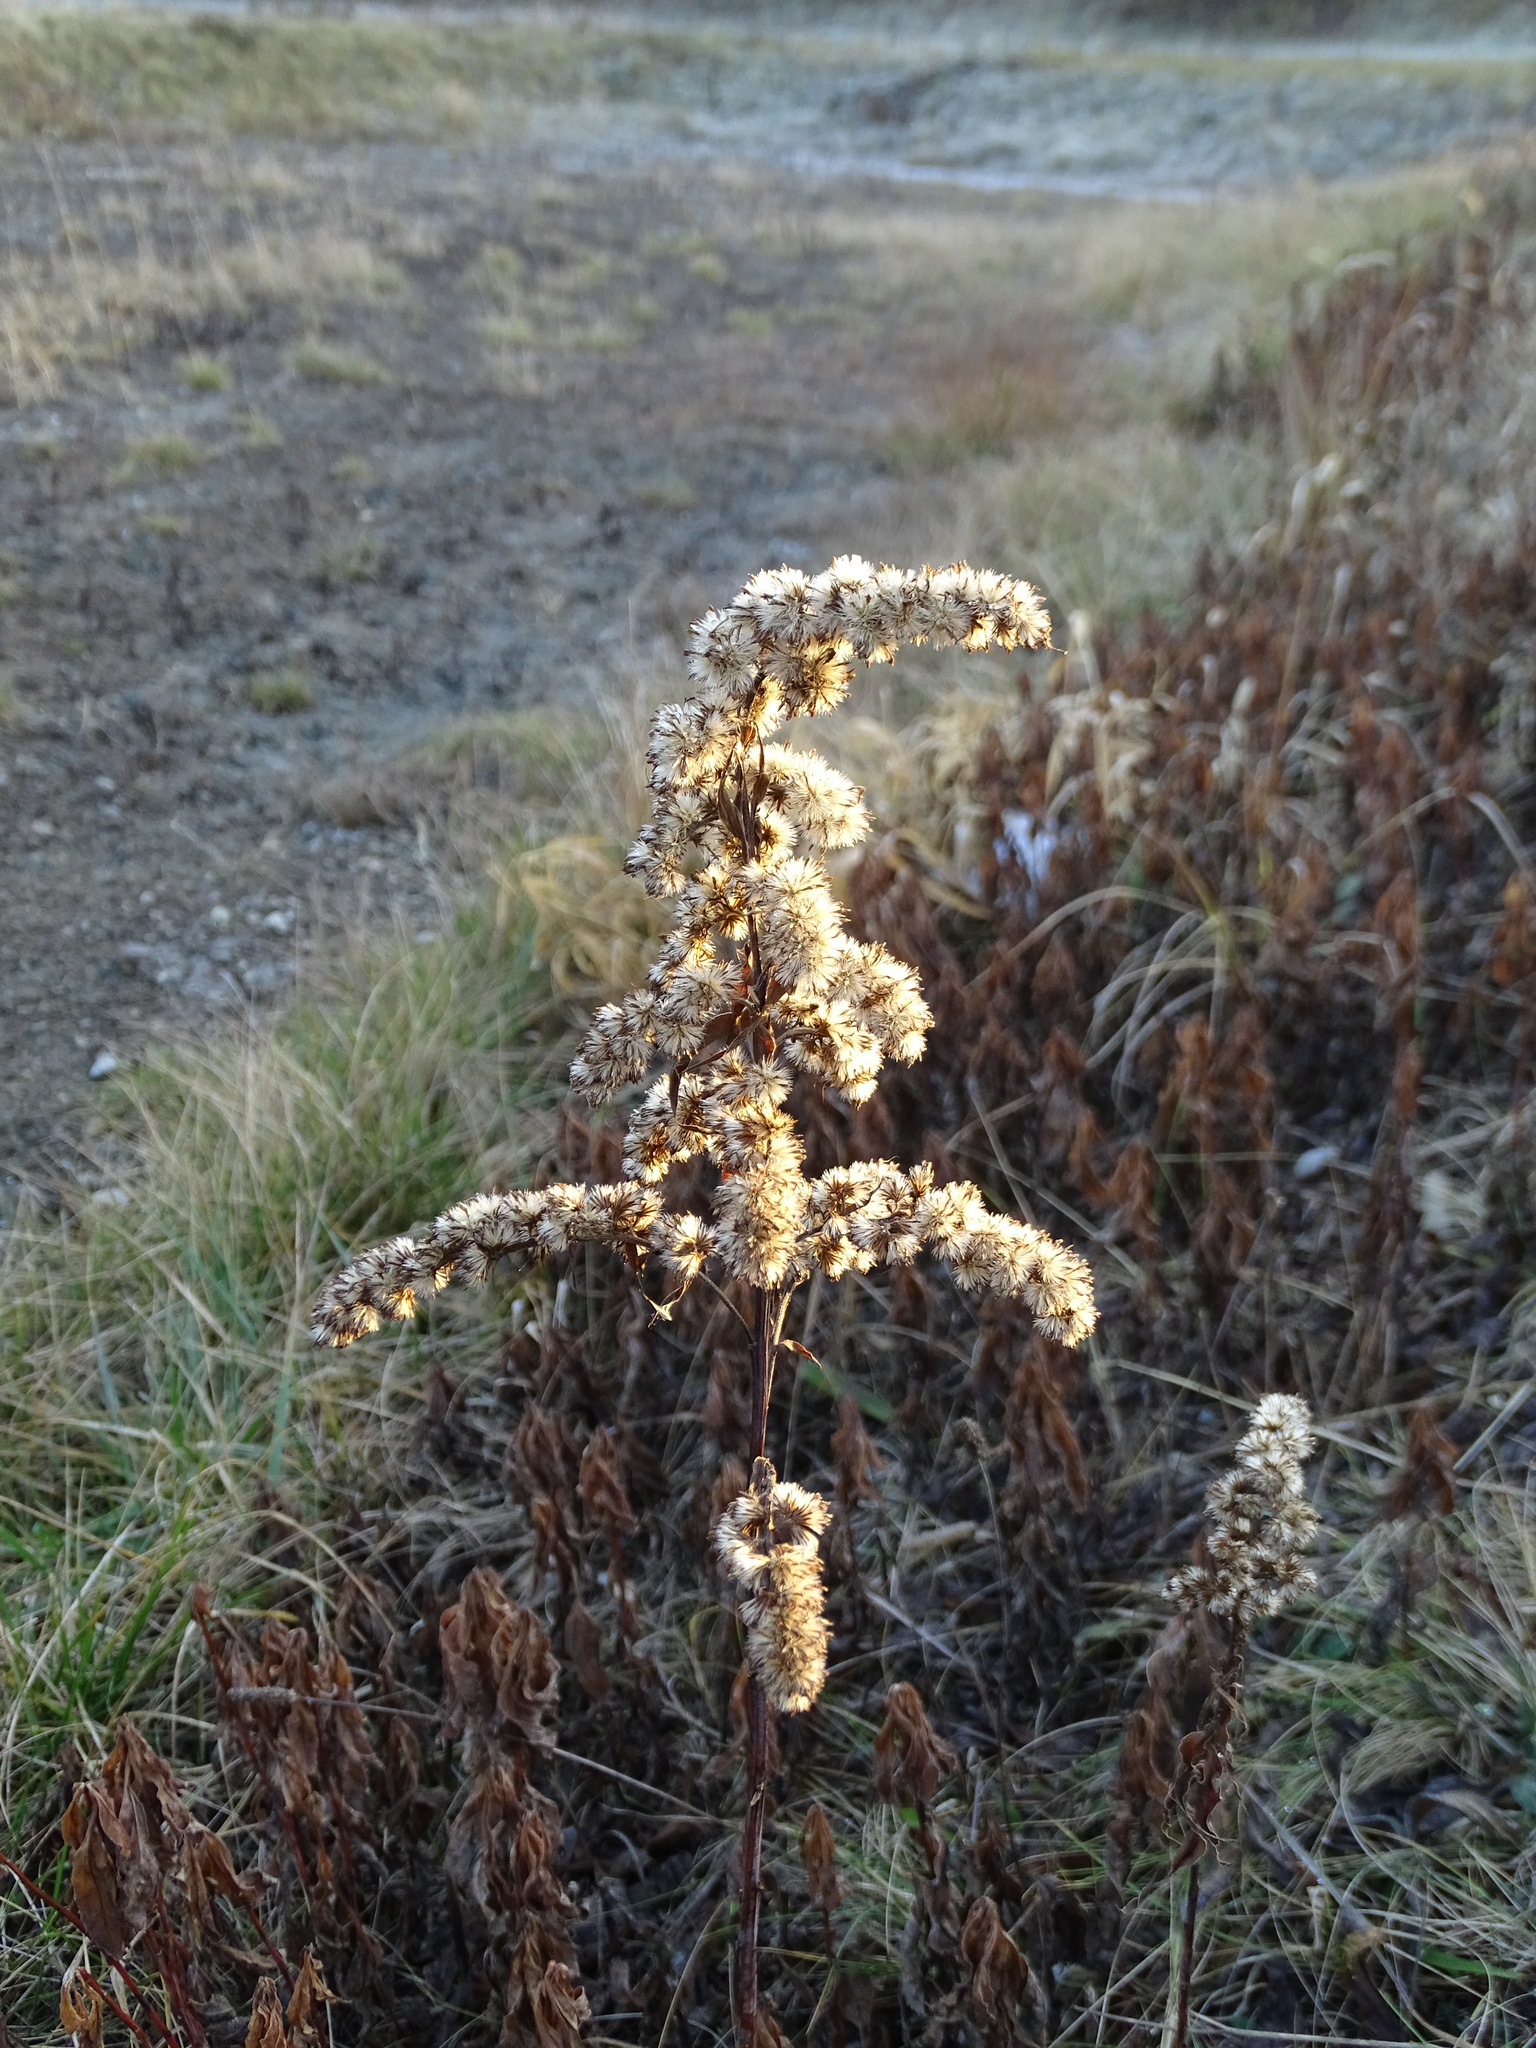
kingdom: Plantae
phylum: Tracheophyta
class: Magnoliopsida
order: Asterales
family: Asteraceae
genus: Solidago
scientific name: Solidago gigantea
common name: Giant goldenrod
